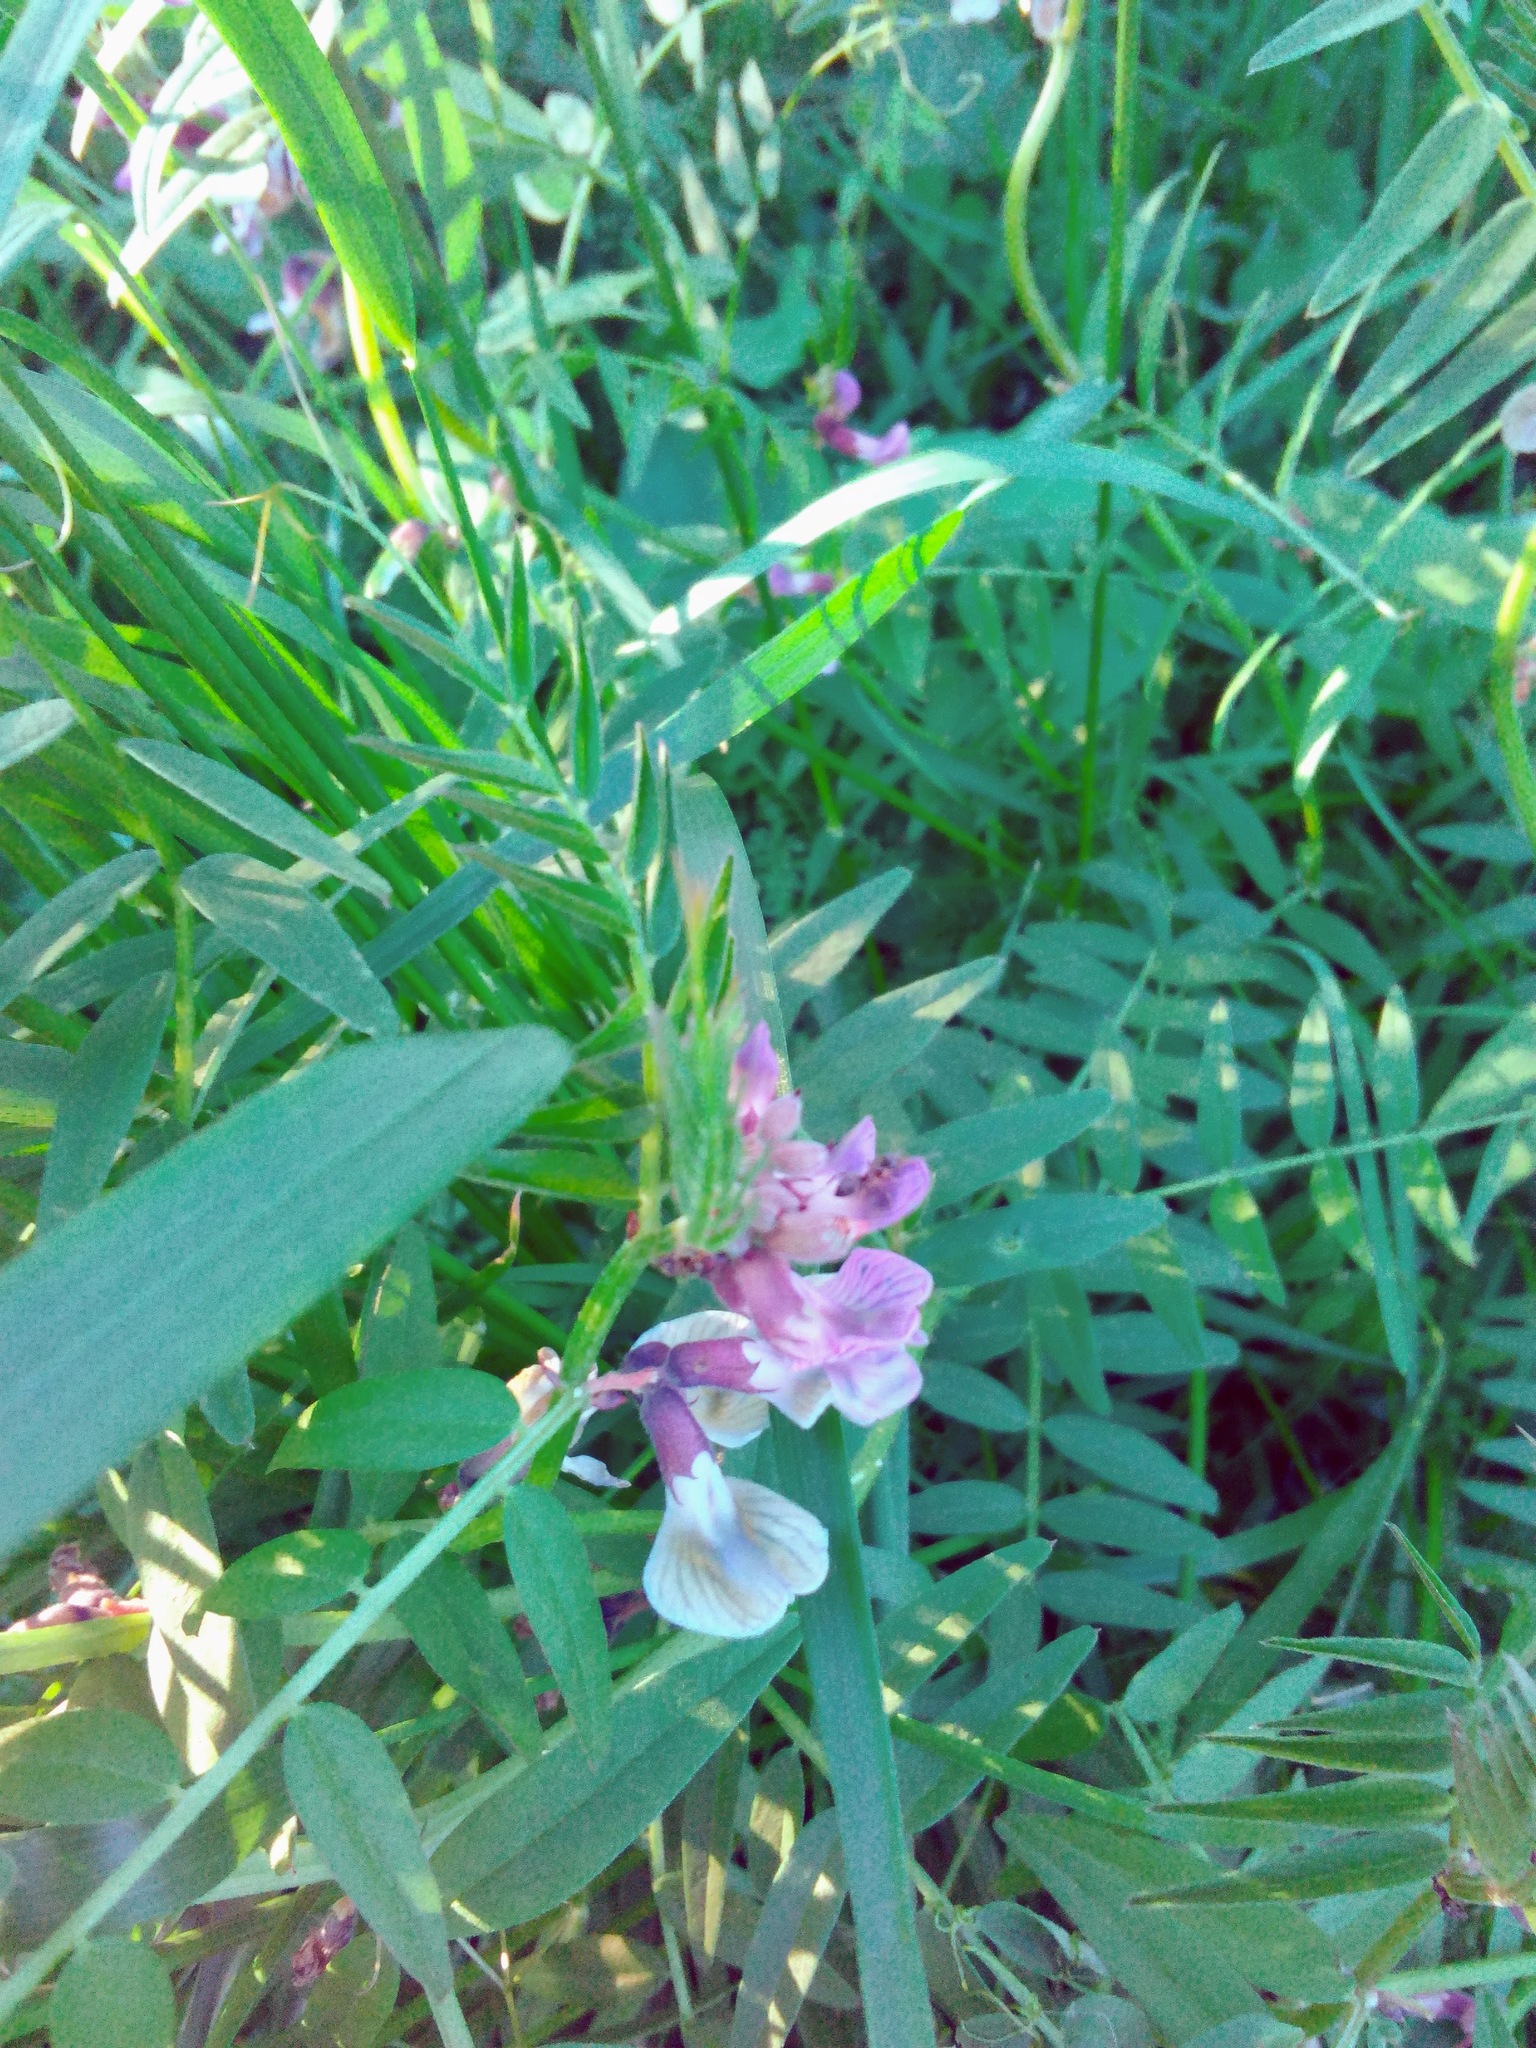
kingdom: Plantae
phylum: Tracheophyta
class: Magnoliopsida
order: Fabales
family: Fabaceae
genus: Vicia
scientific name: Vicia sepium
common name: Bush vetch
